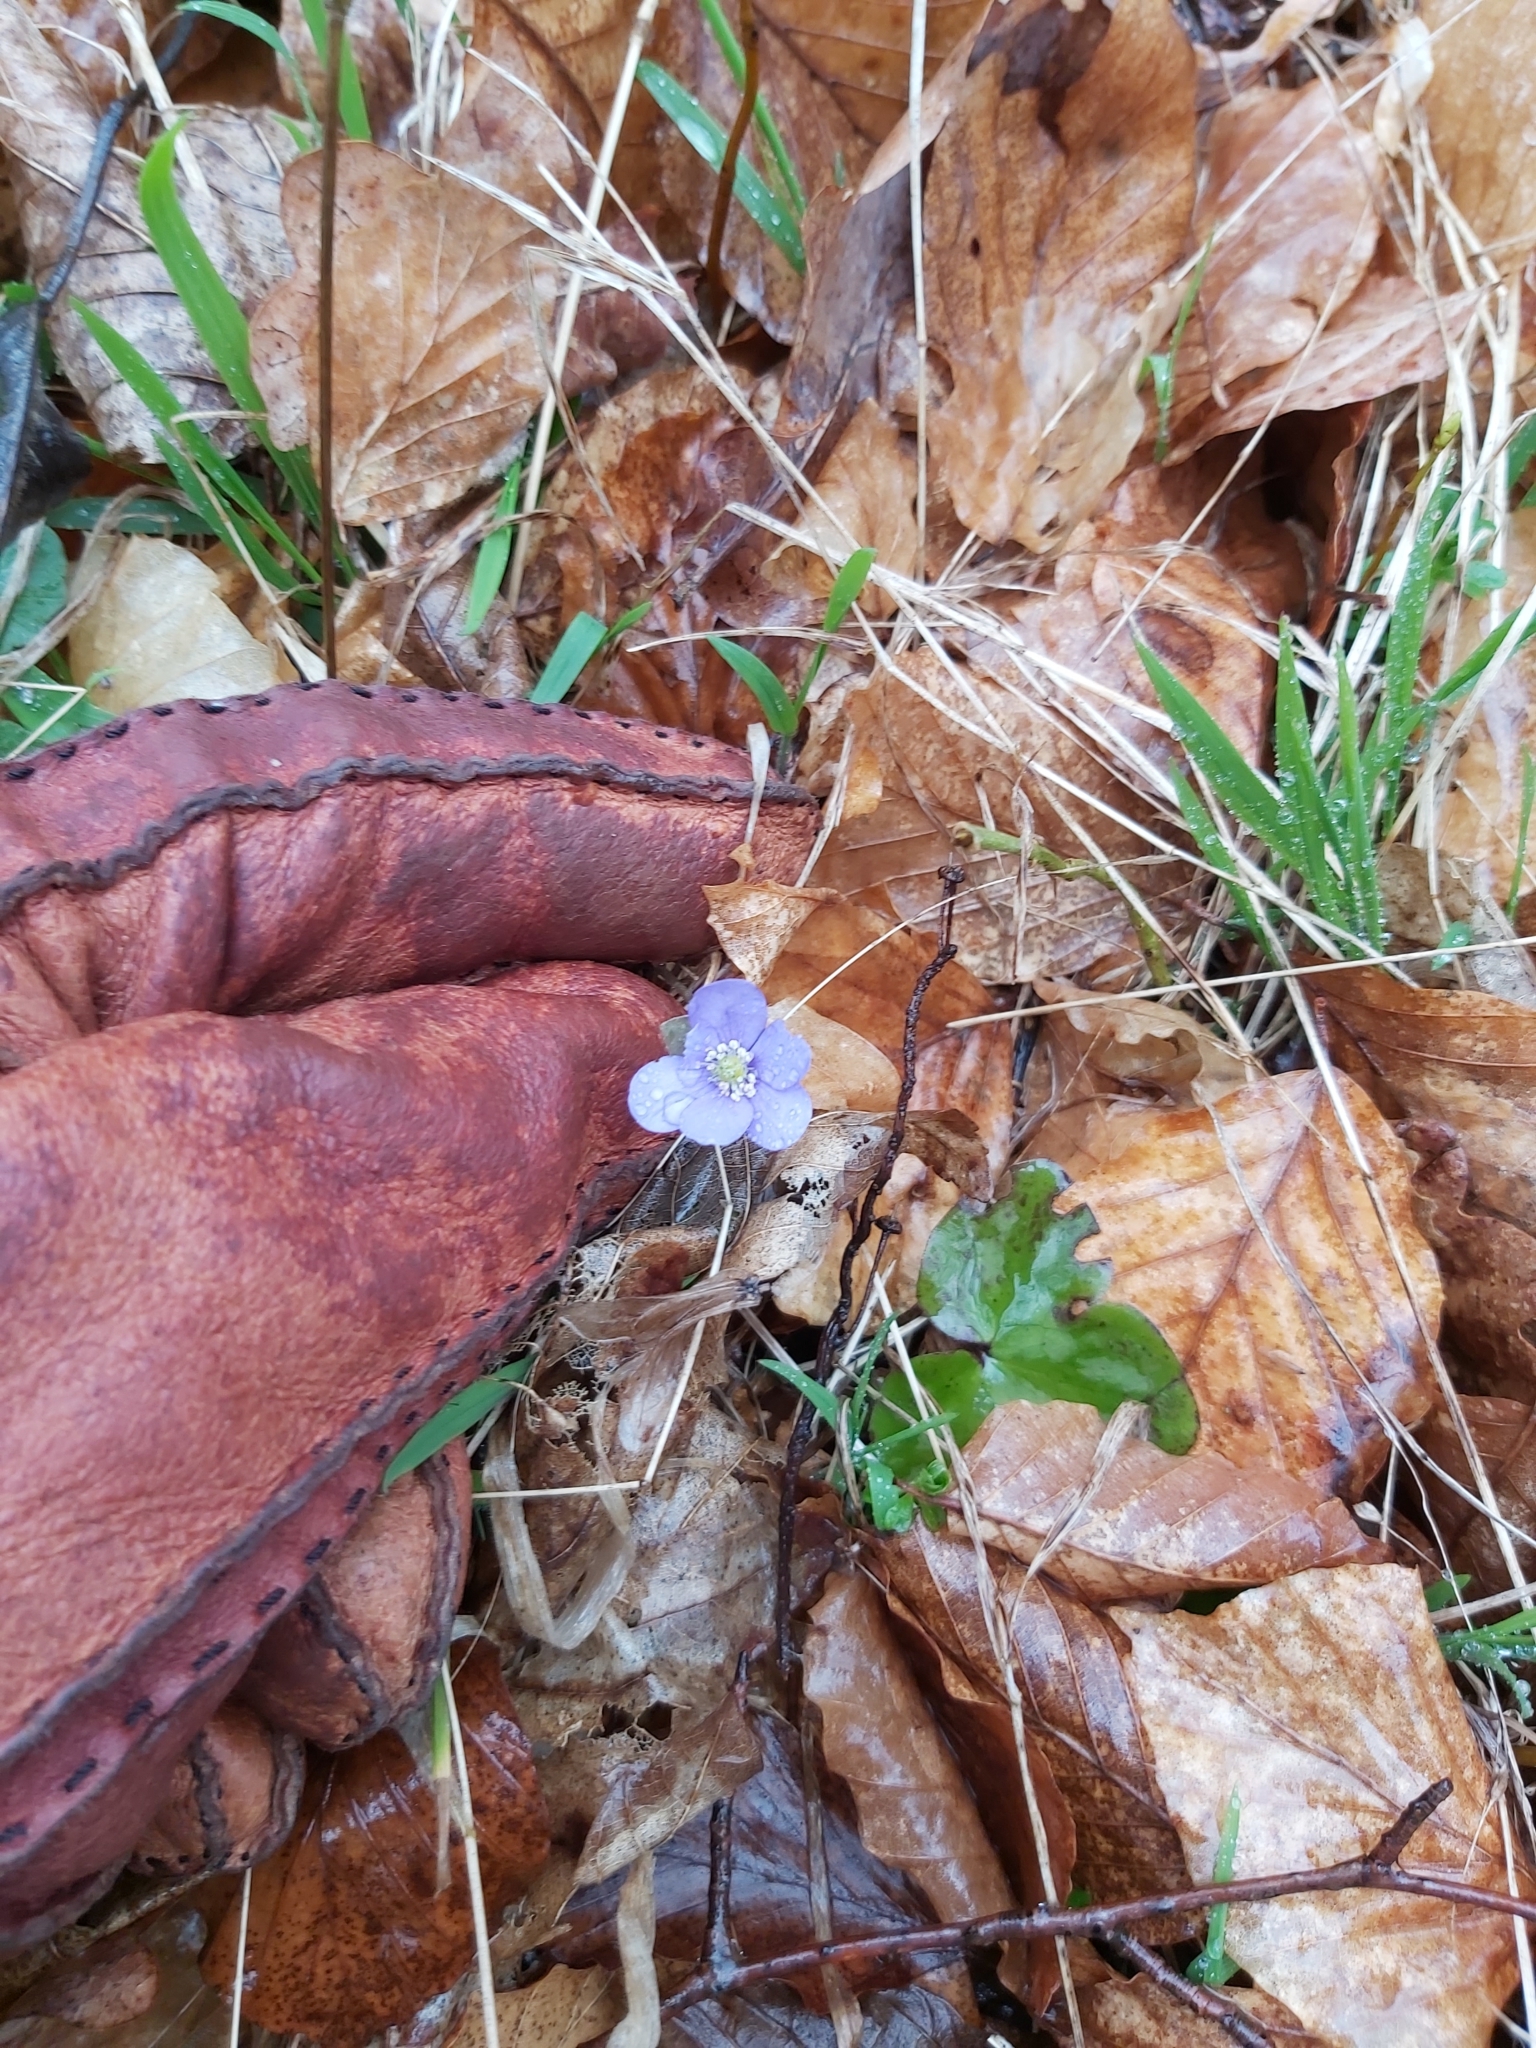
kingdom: Plantae
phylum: Tracheophyta
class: Magnoliopsida
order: Ranunculales
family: Ranunculaceae
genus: Hepatica
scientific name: Hepatica nobilis
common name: Liverleaf
